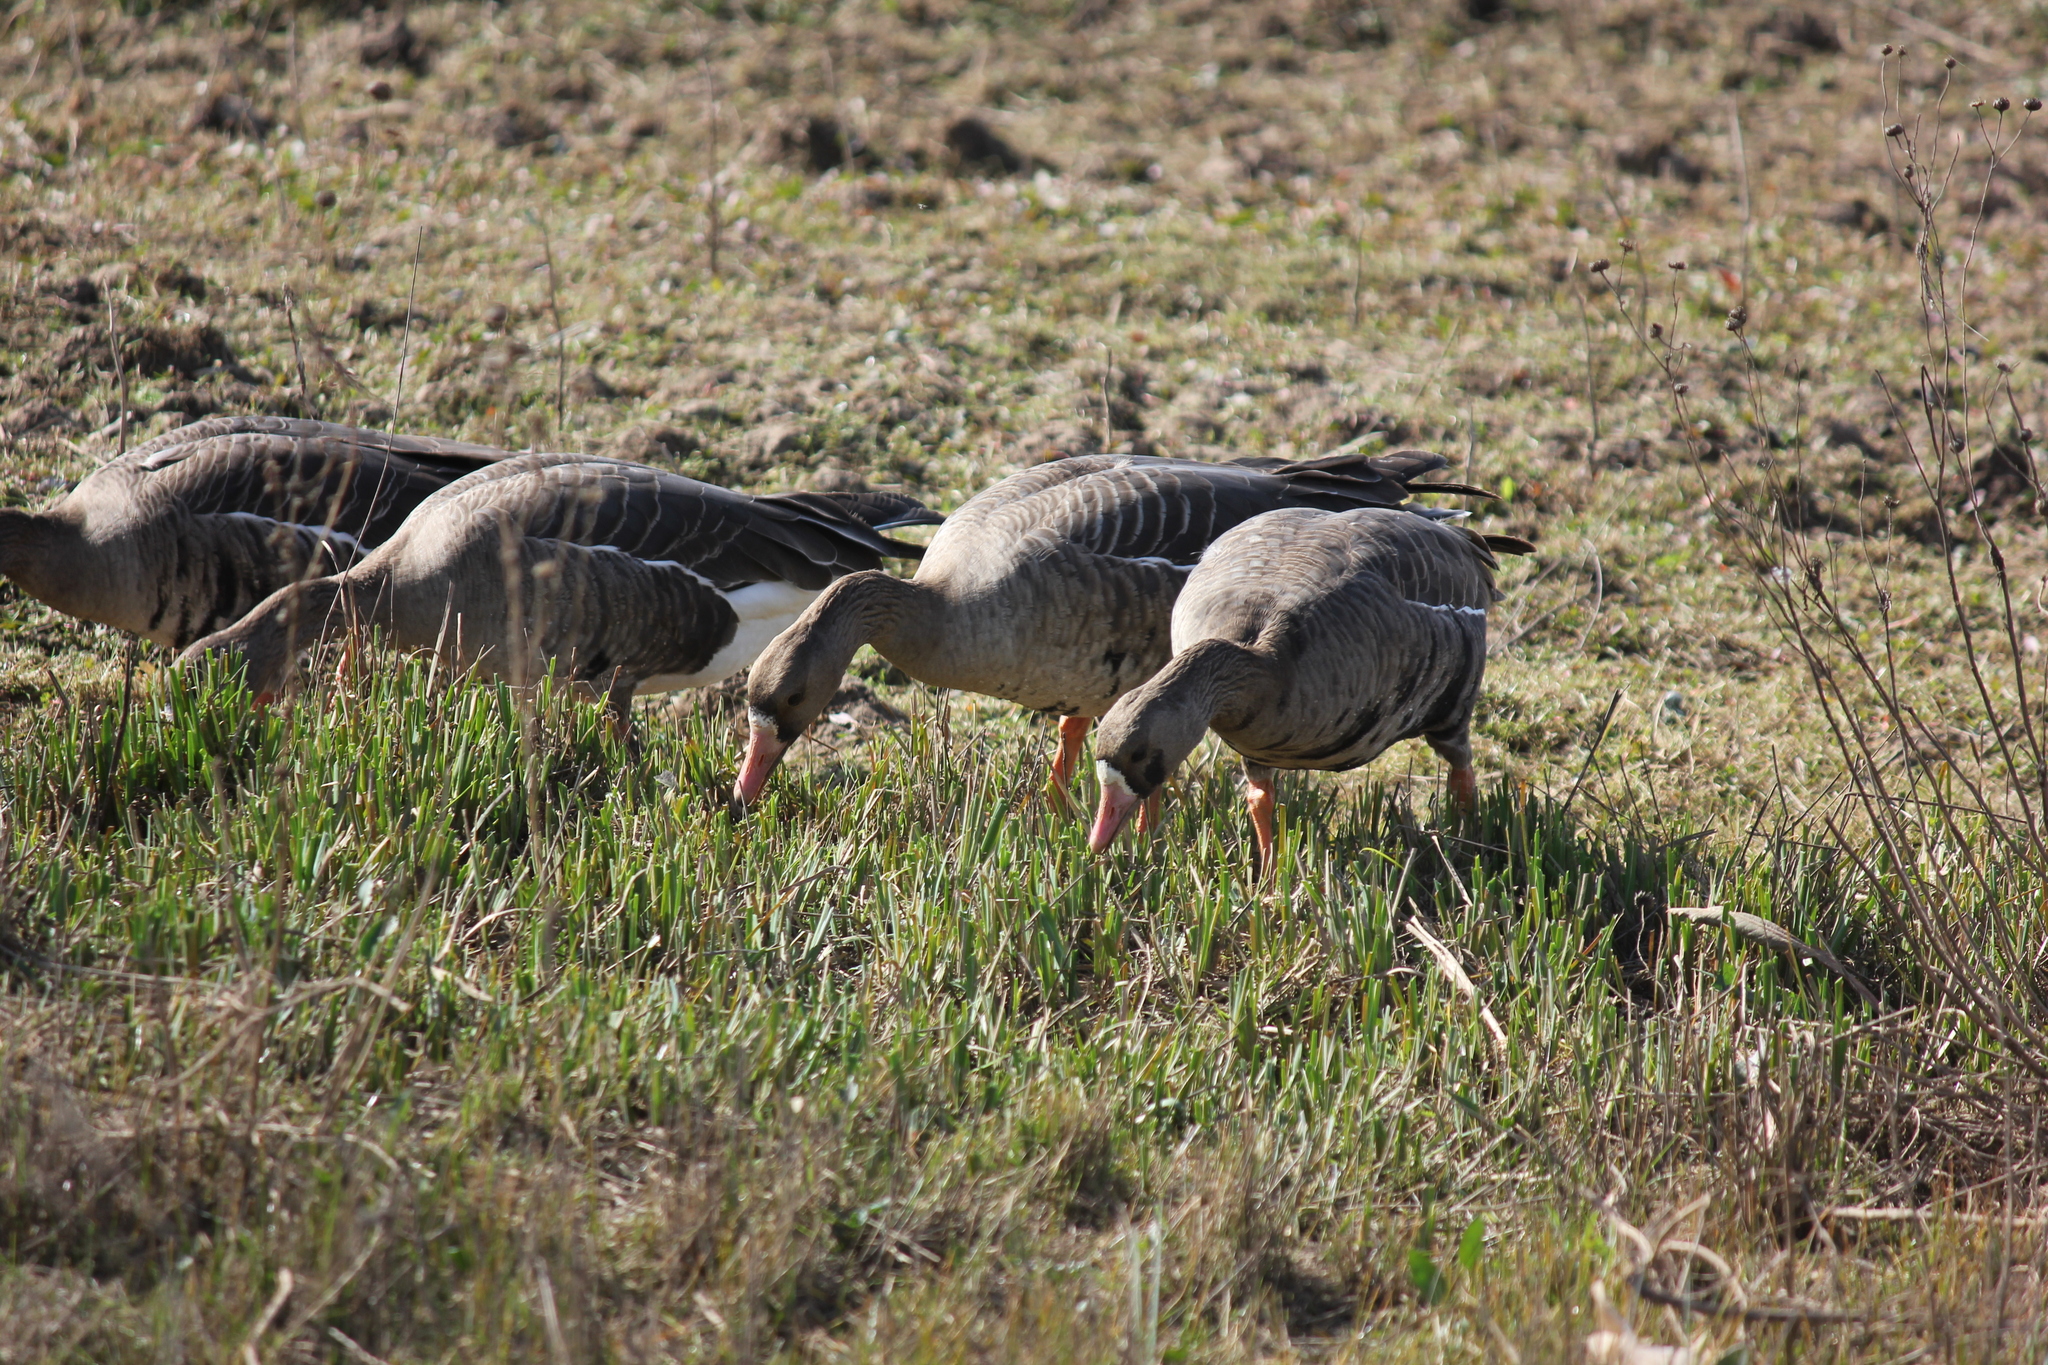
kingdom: Animalia
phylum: Chordata
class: Aves
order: Anseriformes
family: Anatidae
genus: Anser
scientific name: Anser albifrons
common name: Greater white-fronted goose
